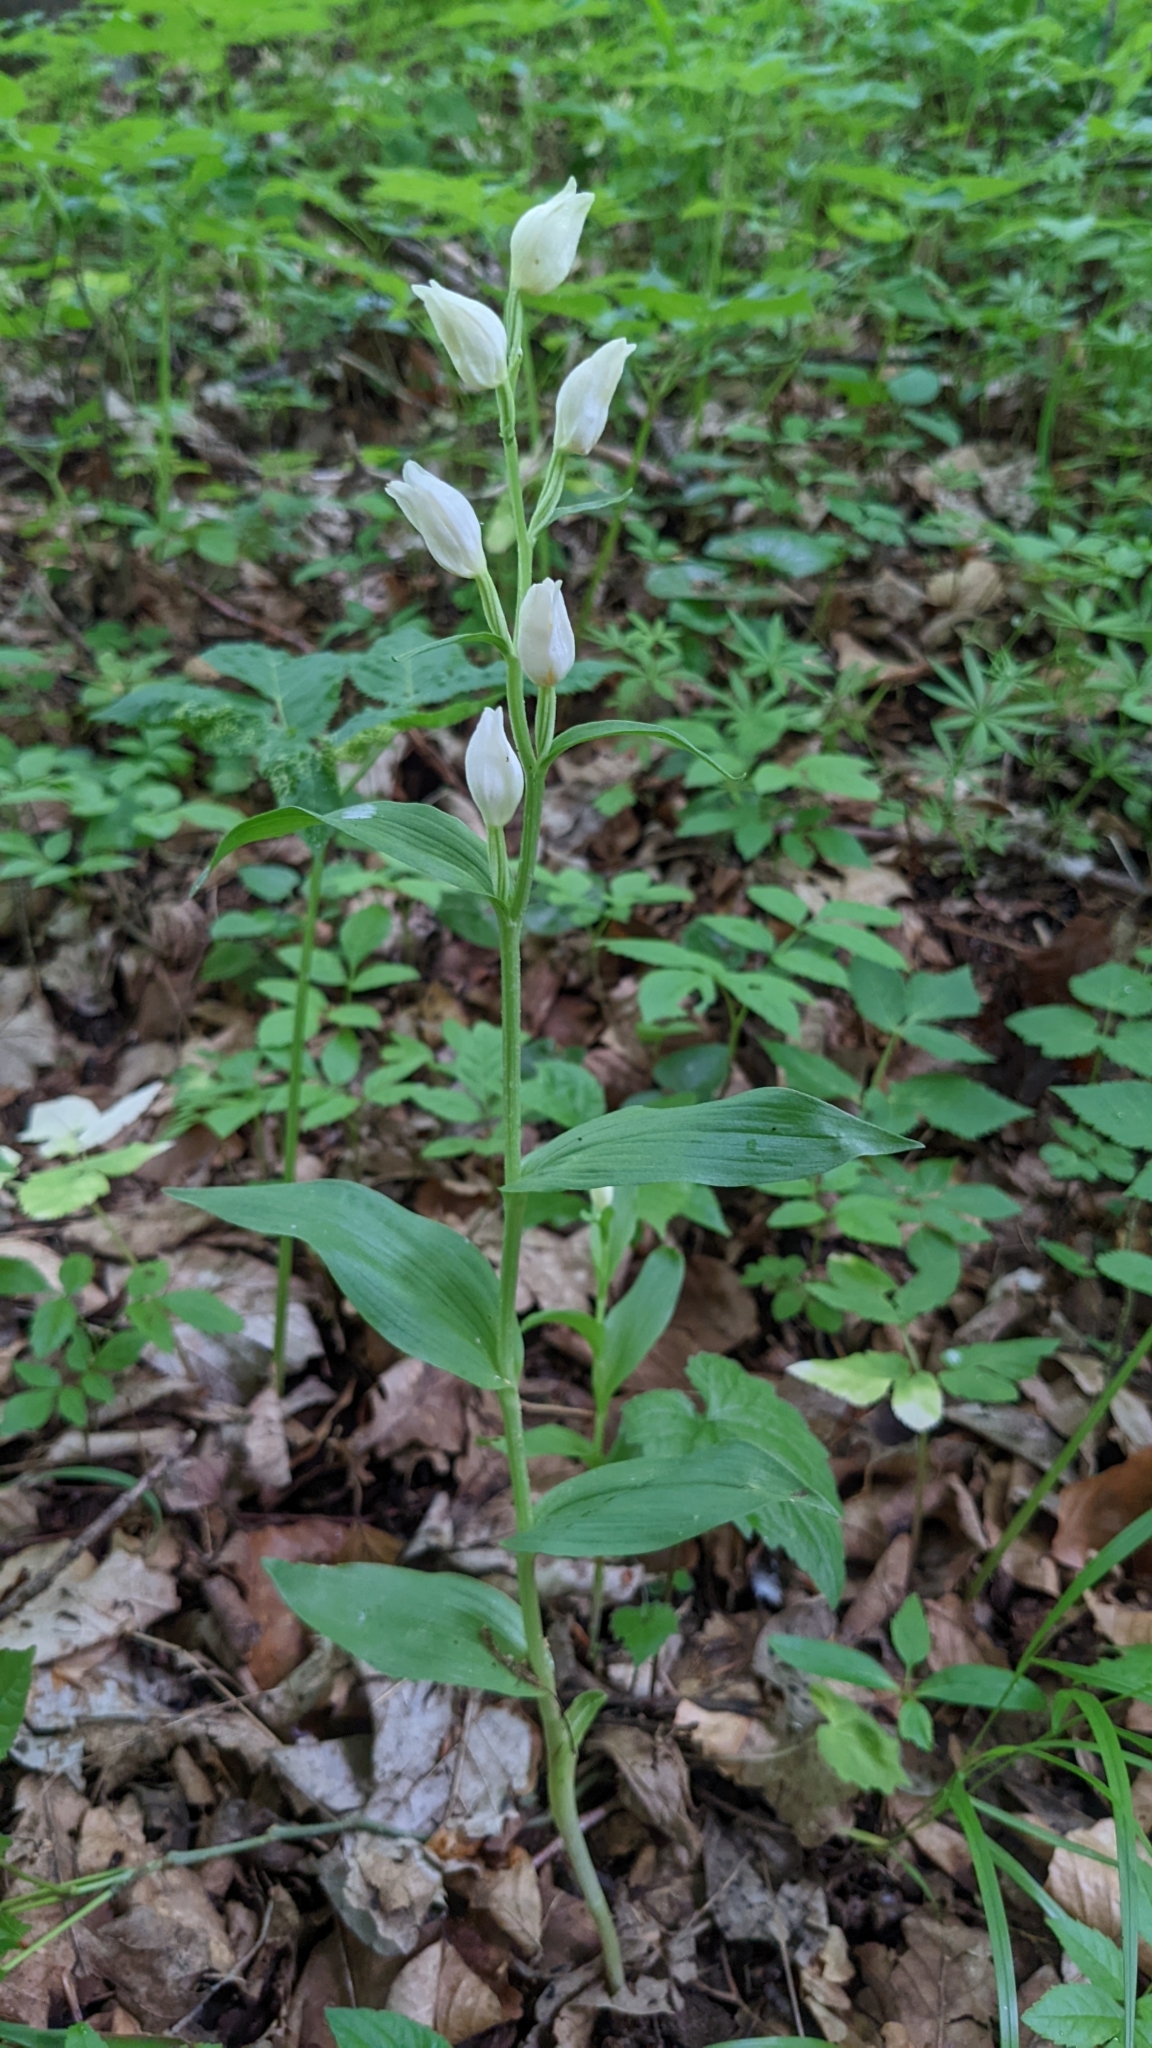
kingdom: Plantae
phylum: Tracheophyta
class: Liliopsida
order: Asparagales
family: Orchidaceae
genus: Cephalanthera
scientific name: Cephalanthera longifolia
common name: Narrow-leaved helleborine
